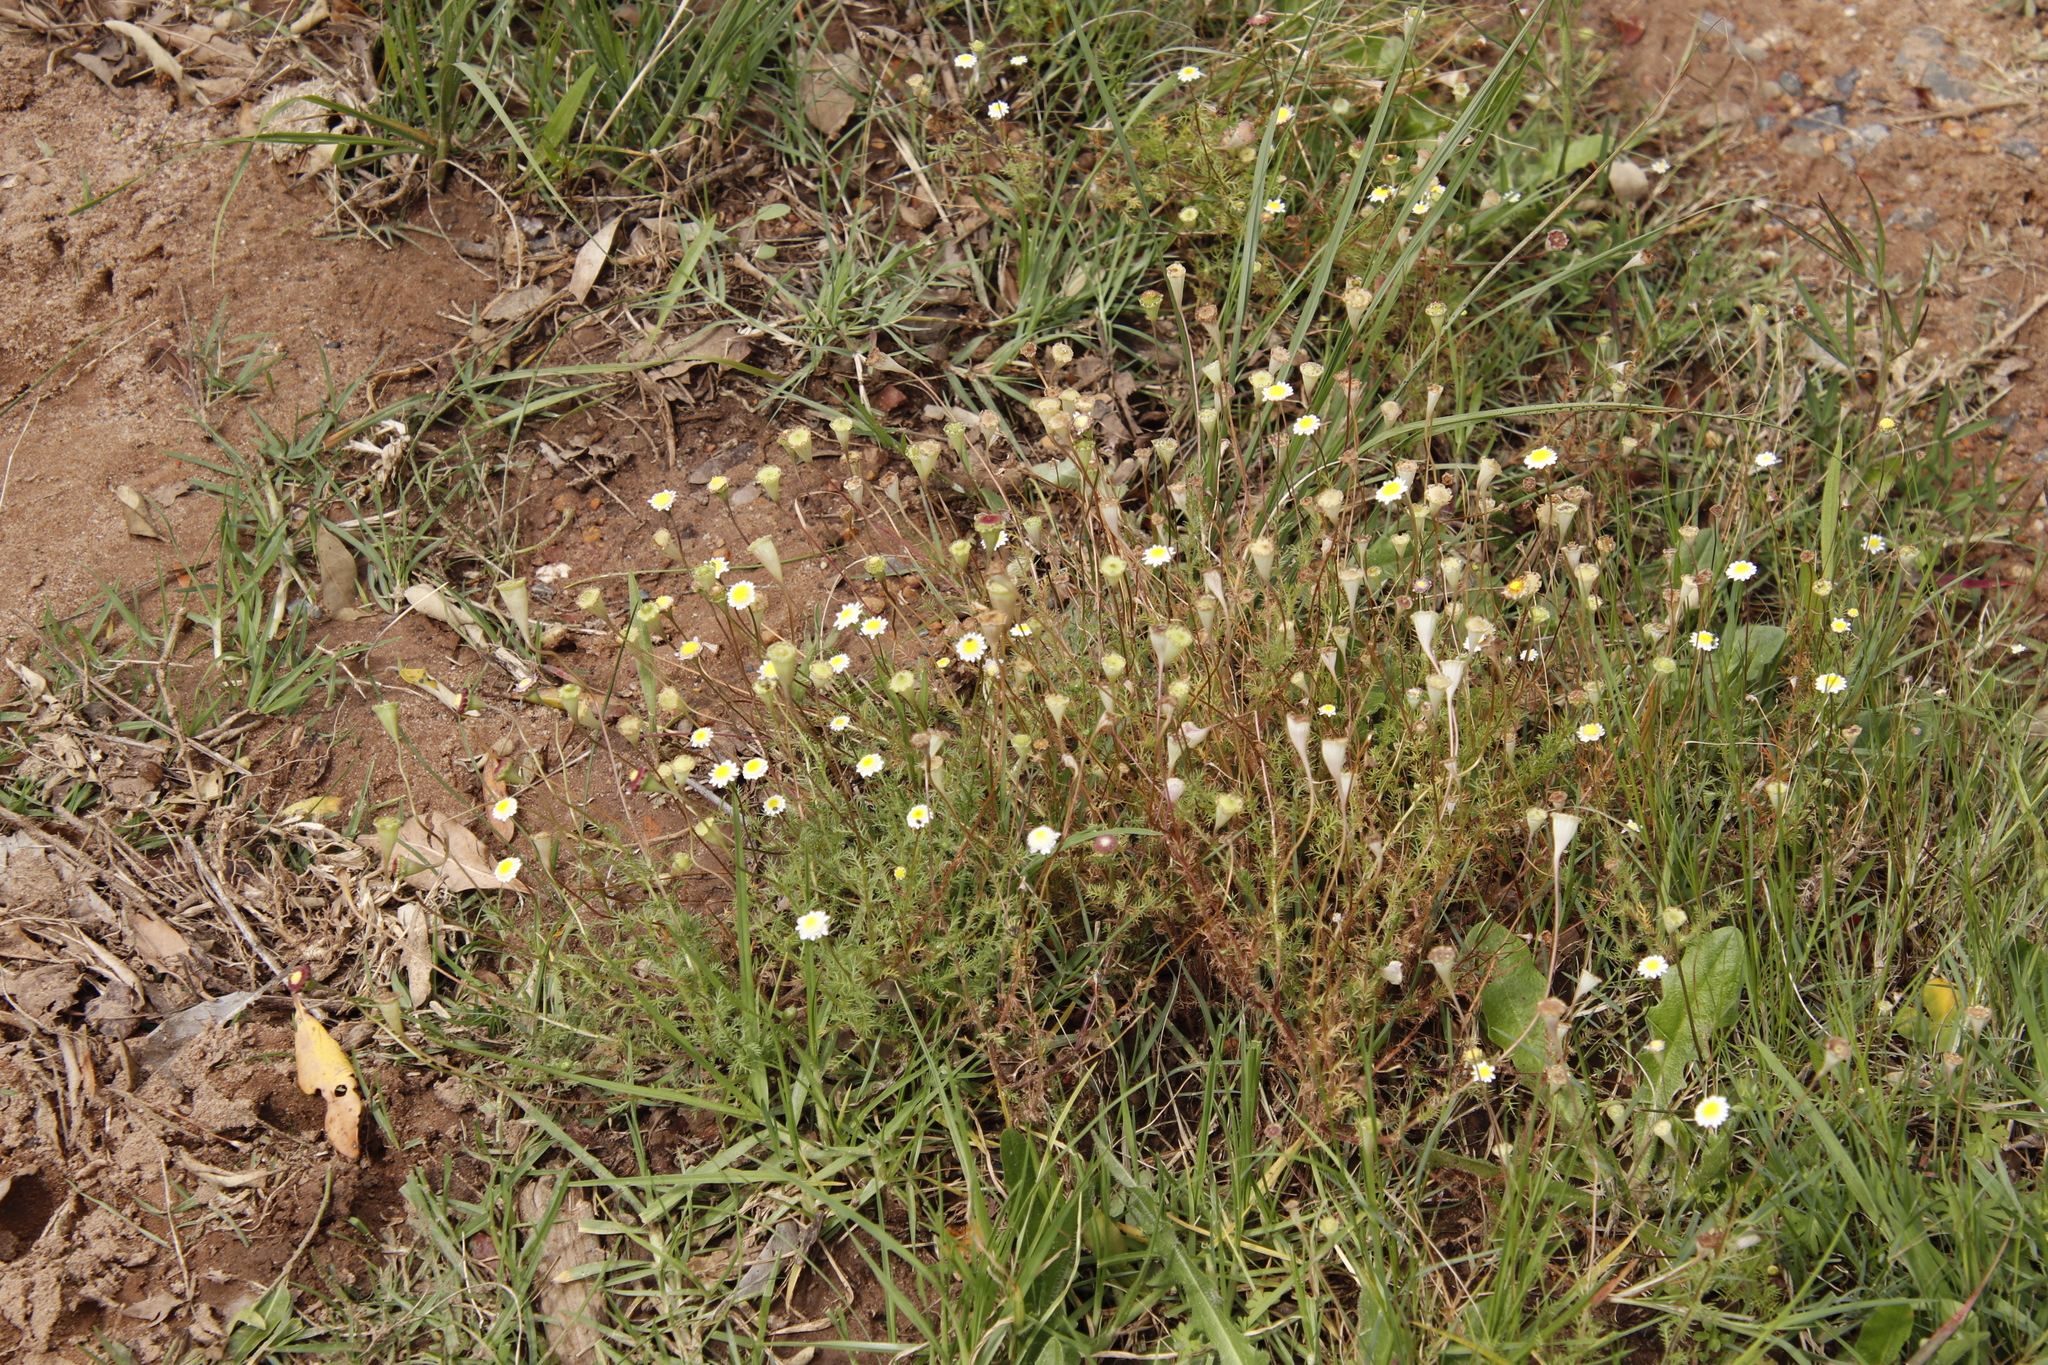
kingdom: Plantae
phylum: Tracheophyta
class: Magnoliopsida
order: Asterales
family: Asteraceae
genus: Cotula
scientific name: Cotula turbinata
